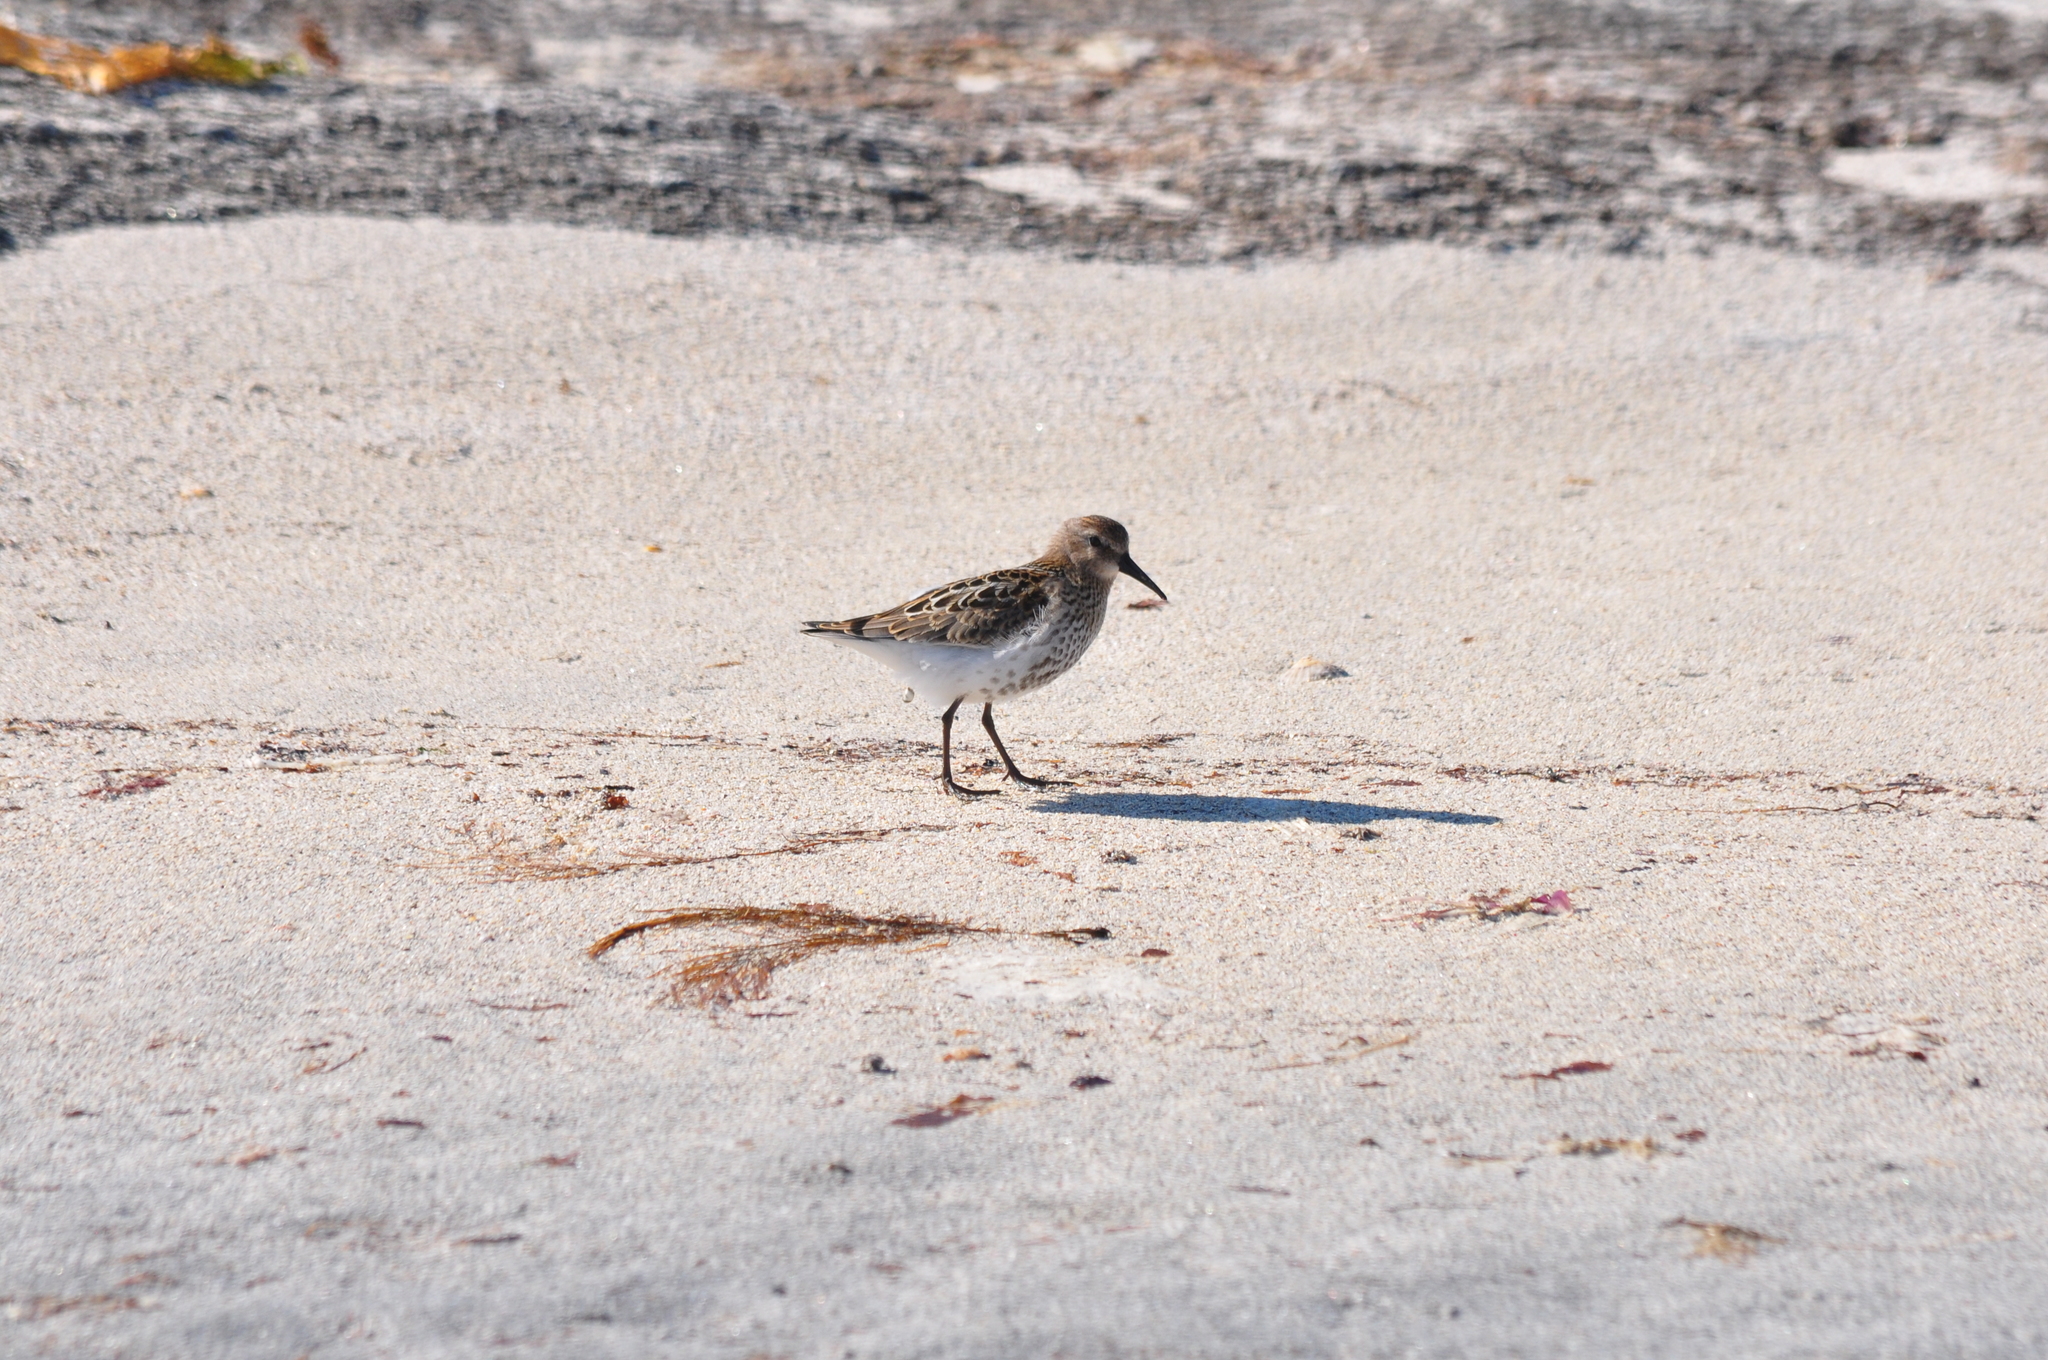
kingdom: Animalia
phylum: Chordata
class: Aves
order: Charadriiformes
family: Scolopacidae
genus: Calidris
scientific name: Calidris alpina
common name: Dunlin
